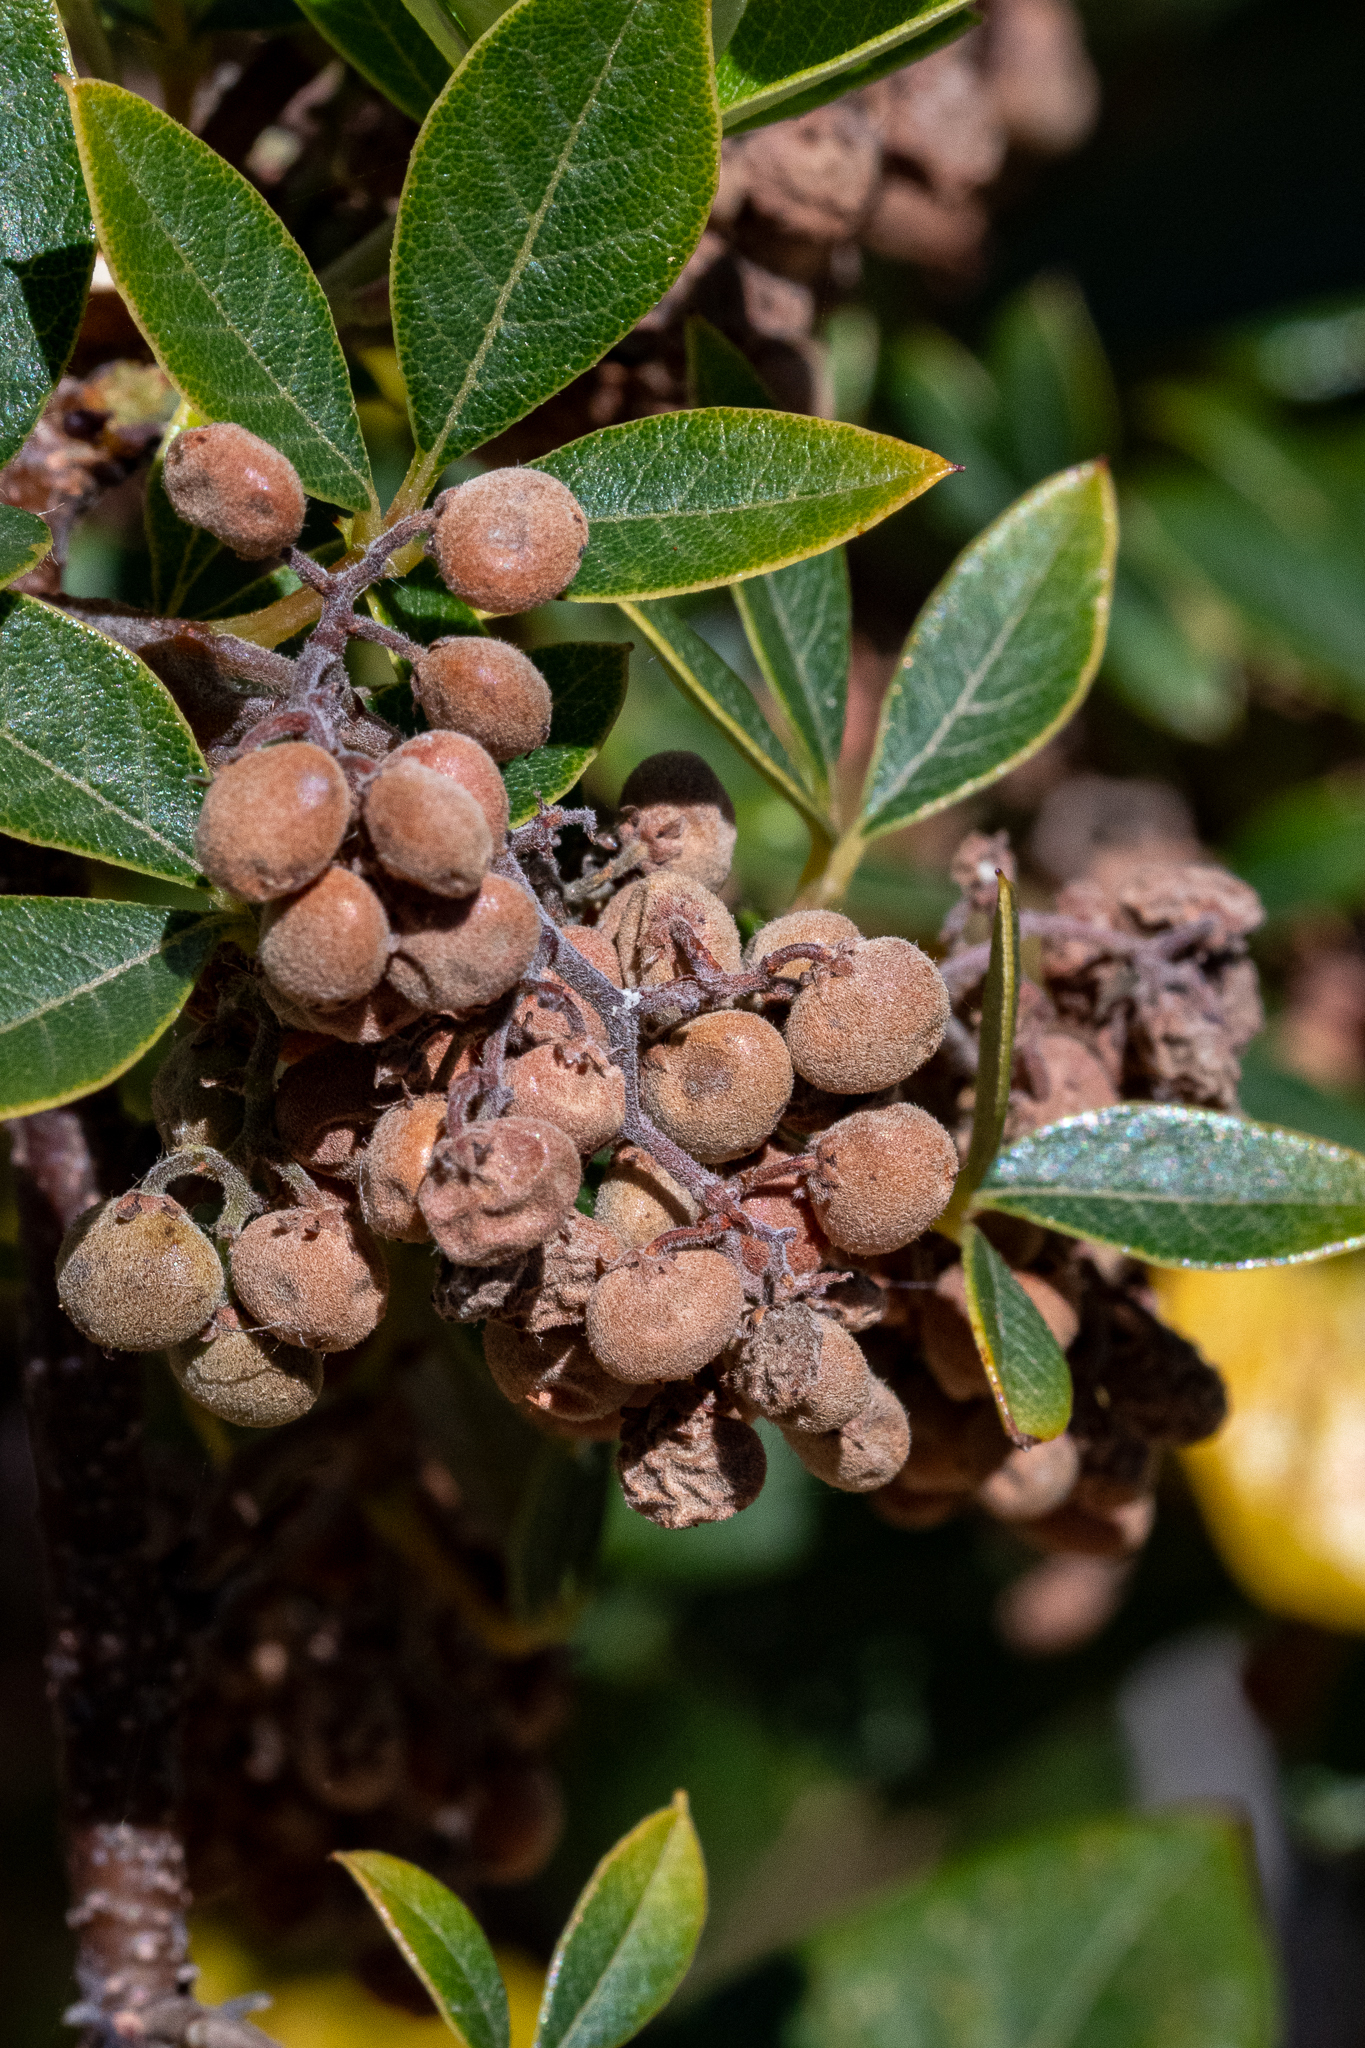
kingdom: Plantae
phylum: Tracheophyta
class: Magnoliopsida
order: Sapindales
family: Anacardiaceae
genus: Searsia
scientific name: Searsia tomentosa
